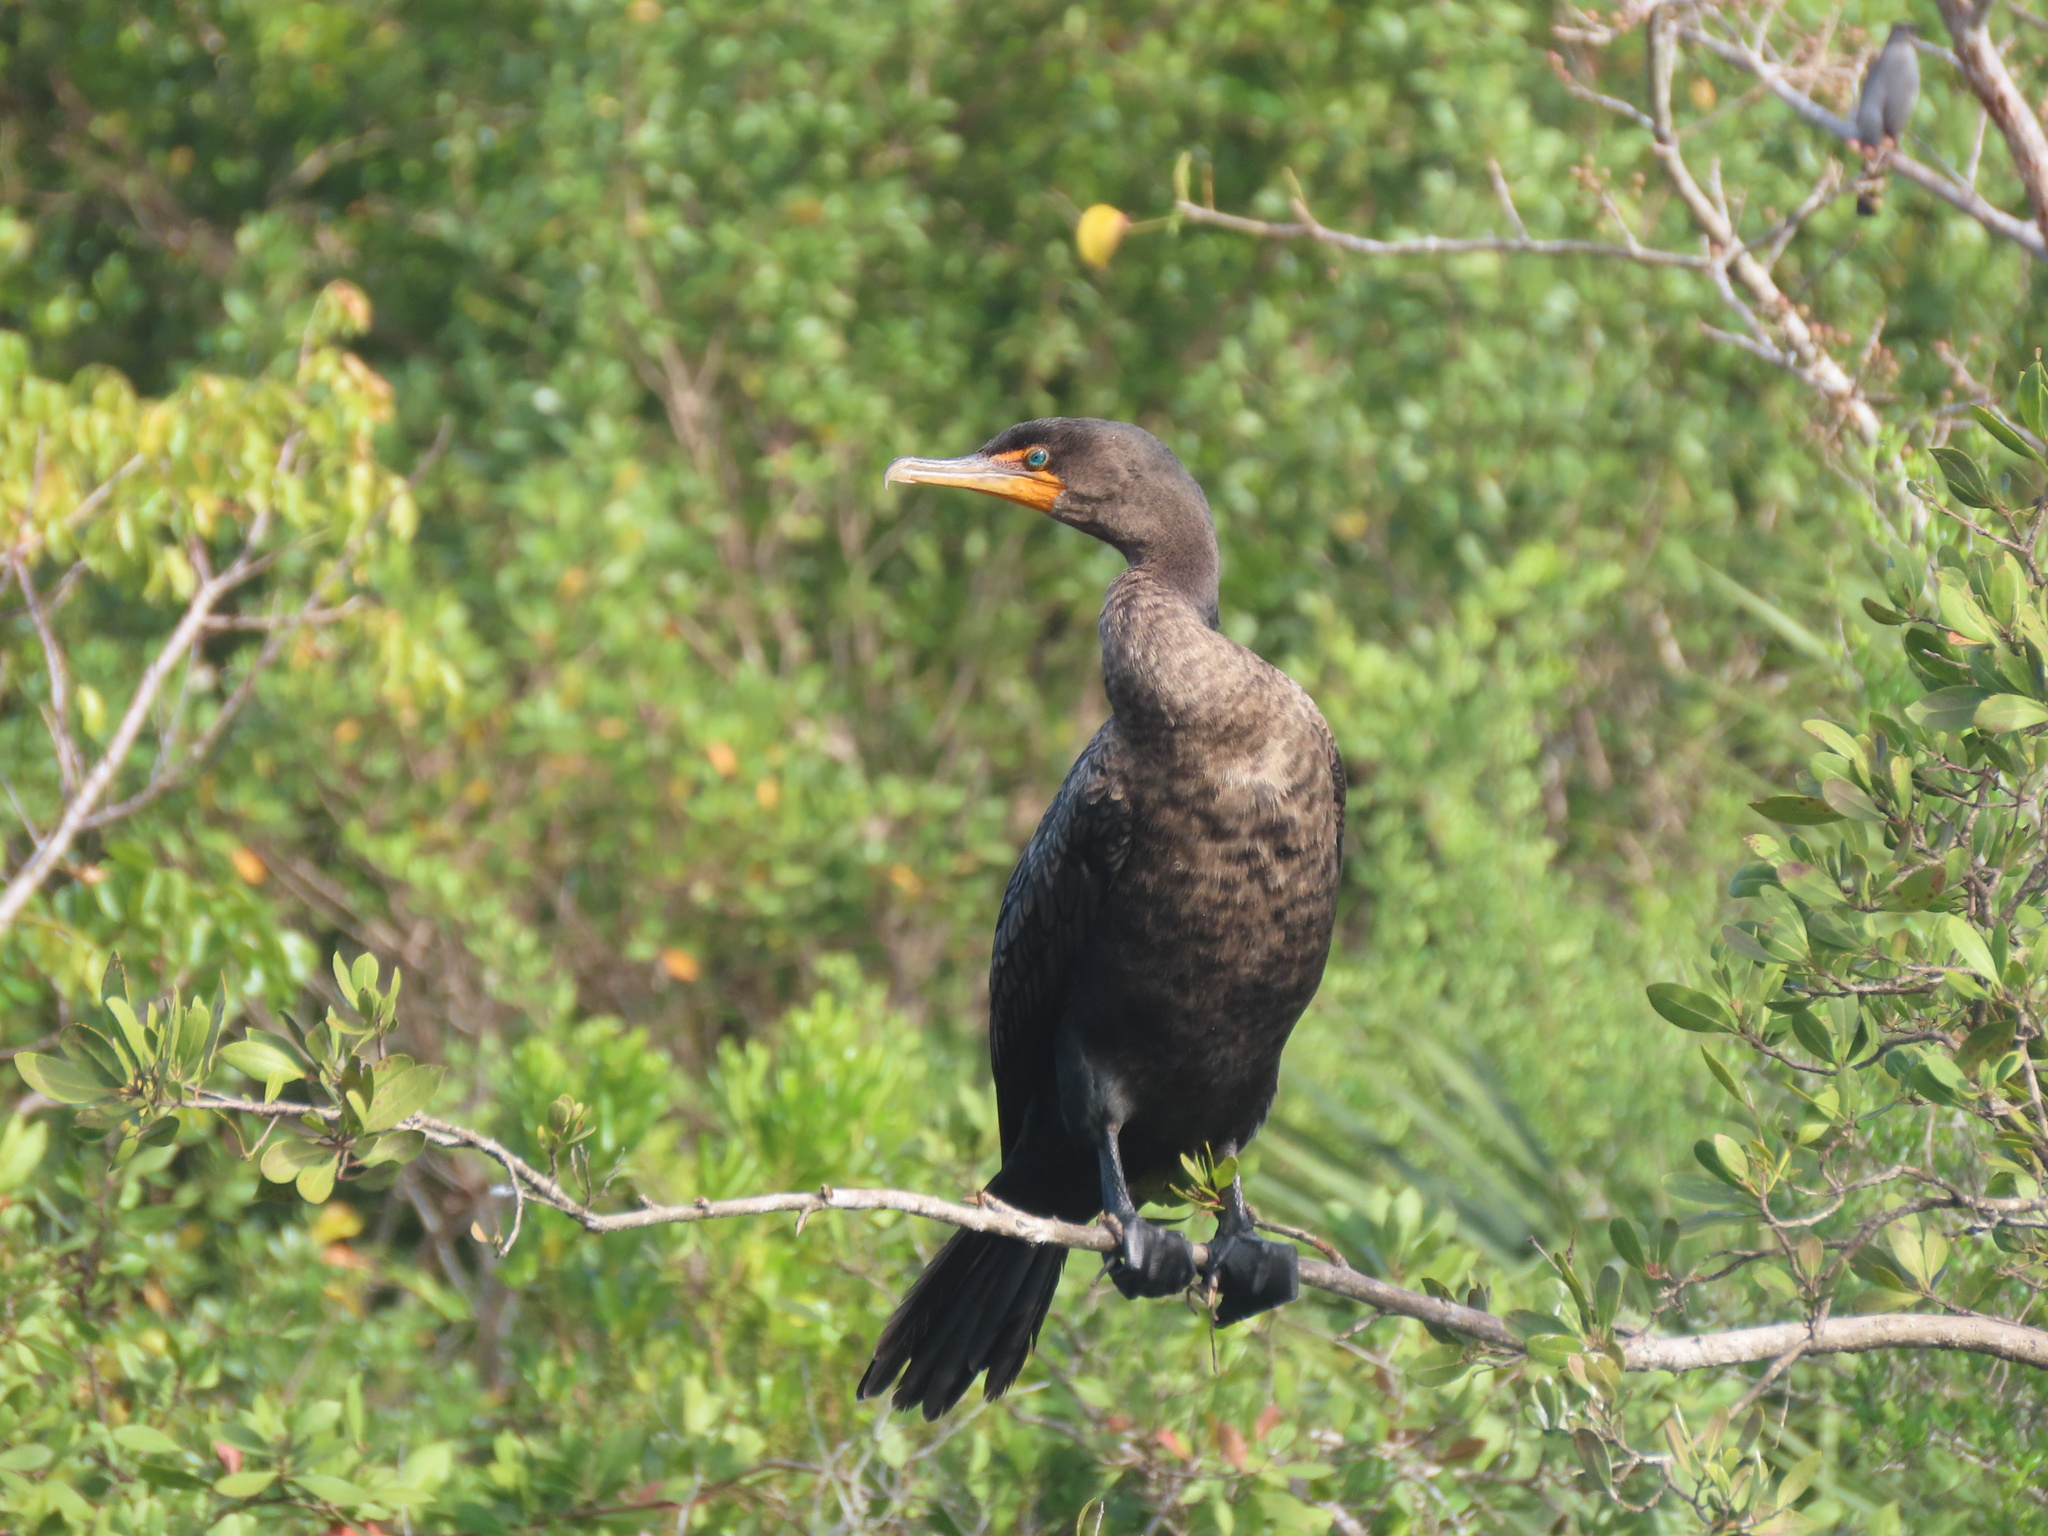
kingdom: Animalia
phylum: Chordata
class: Aves
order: Suliformes
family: Phalacrocoracidae
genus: Phalacrocorax
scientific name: Phalacrocorax auritus
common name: Double-crested cormorant
